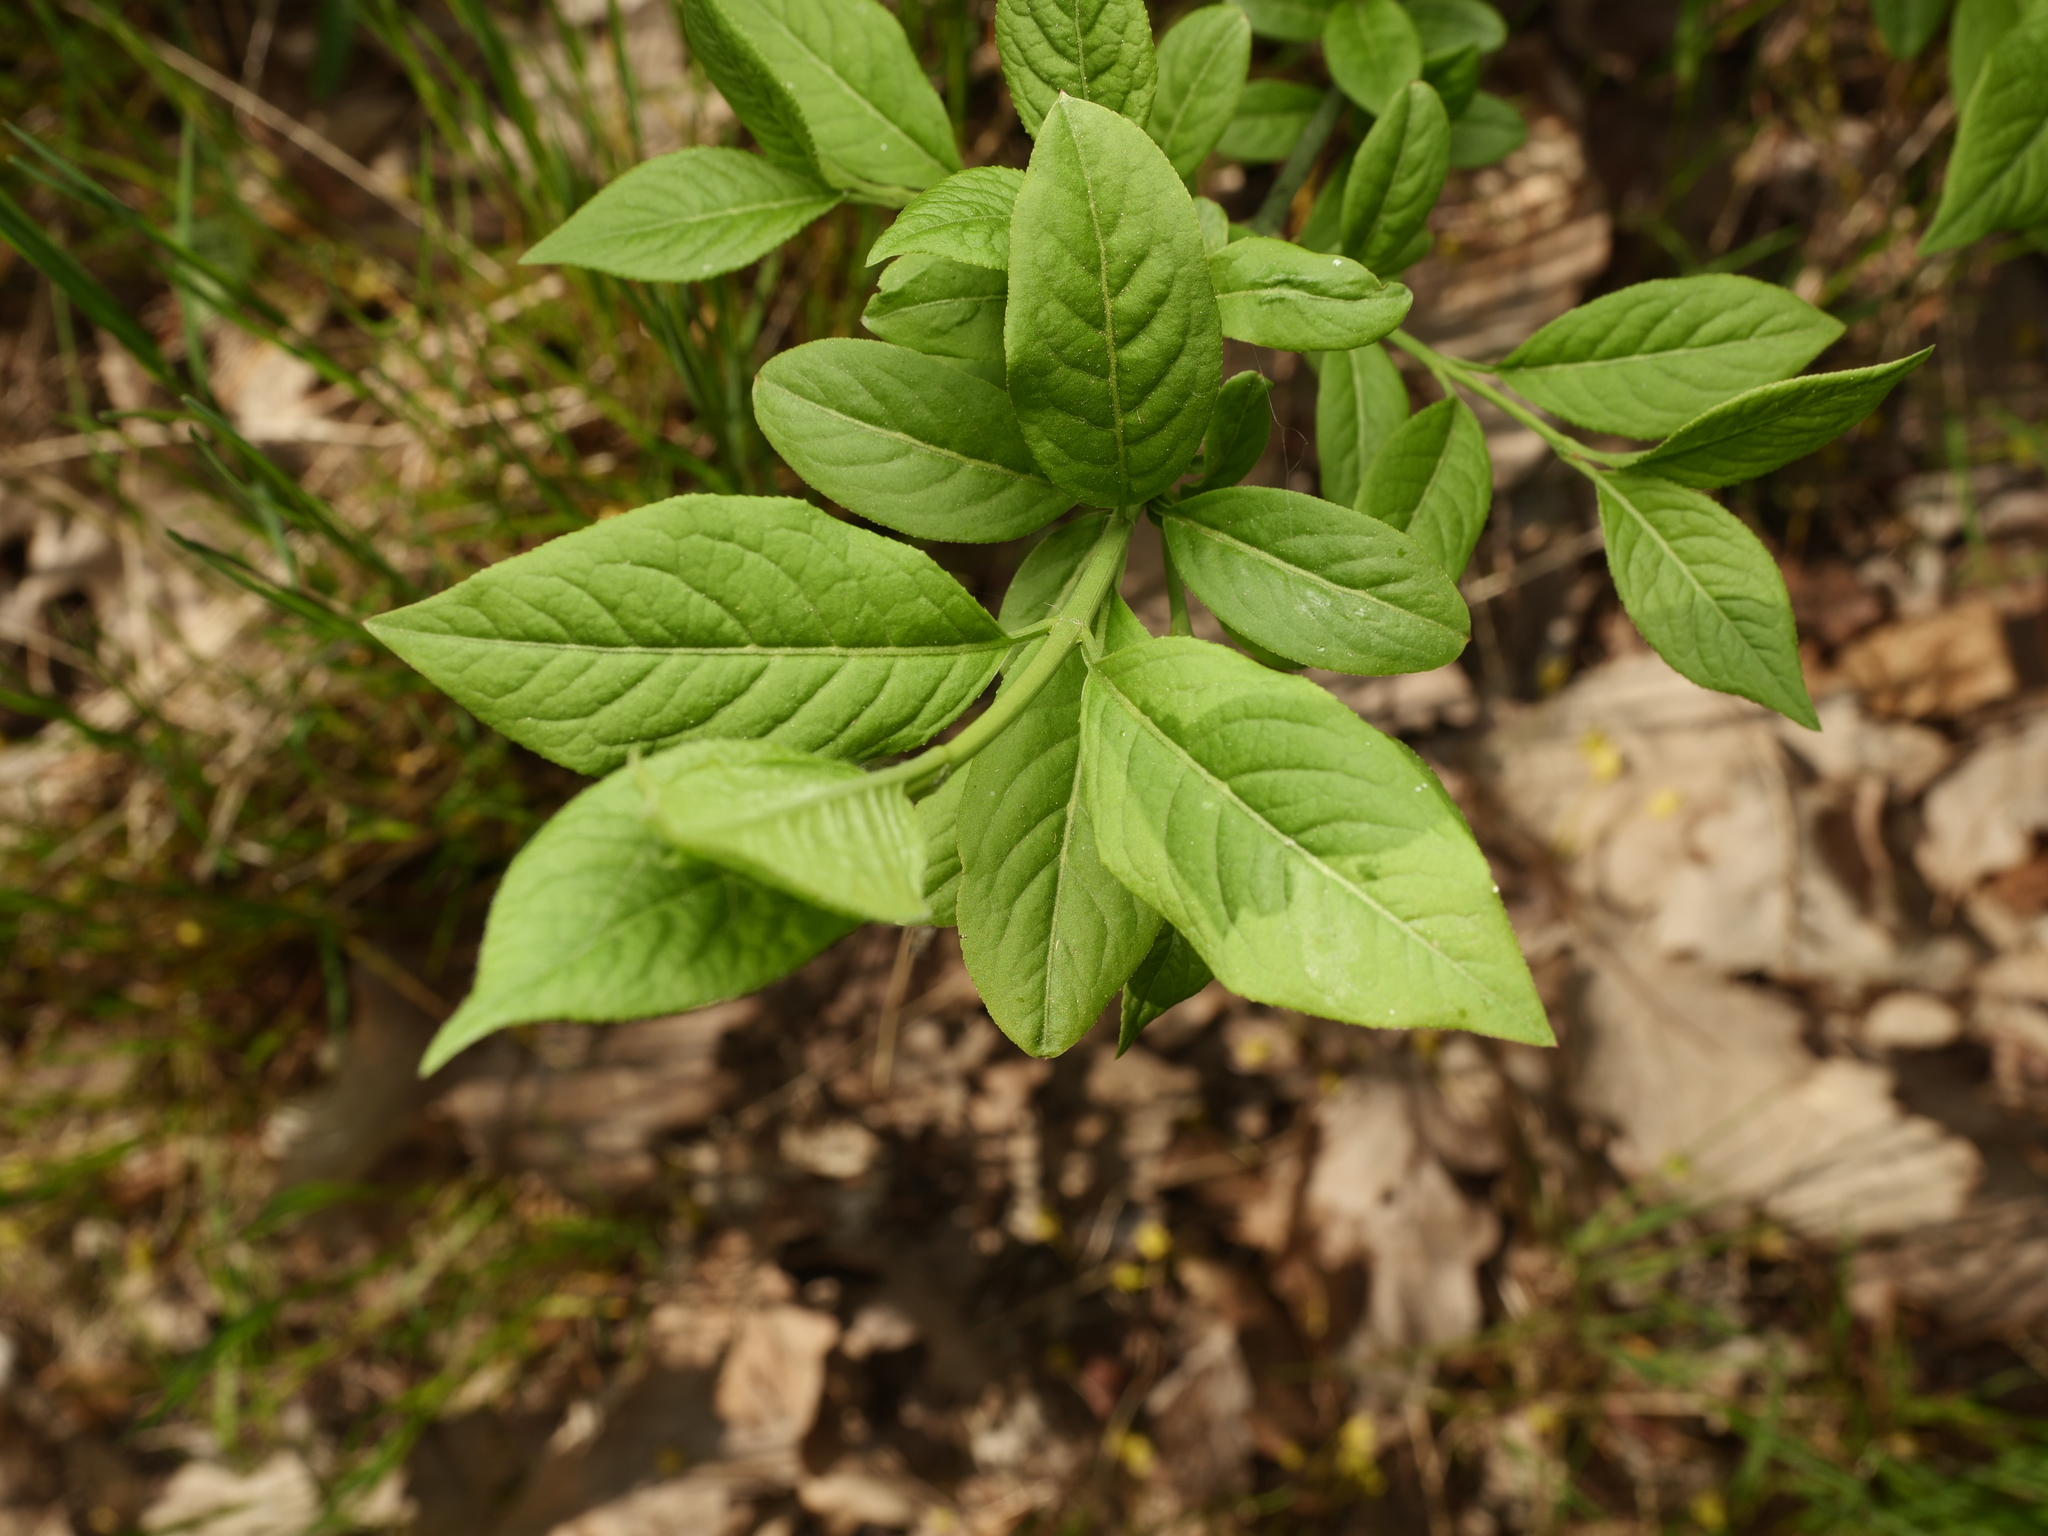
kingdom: Plantae
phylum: Tracheophyta
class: Magnoliopsida
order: Celastrales
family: Celastraceae
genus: Euonymus
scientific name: Euonymus europaeus
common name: Spindle
